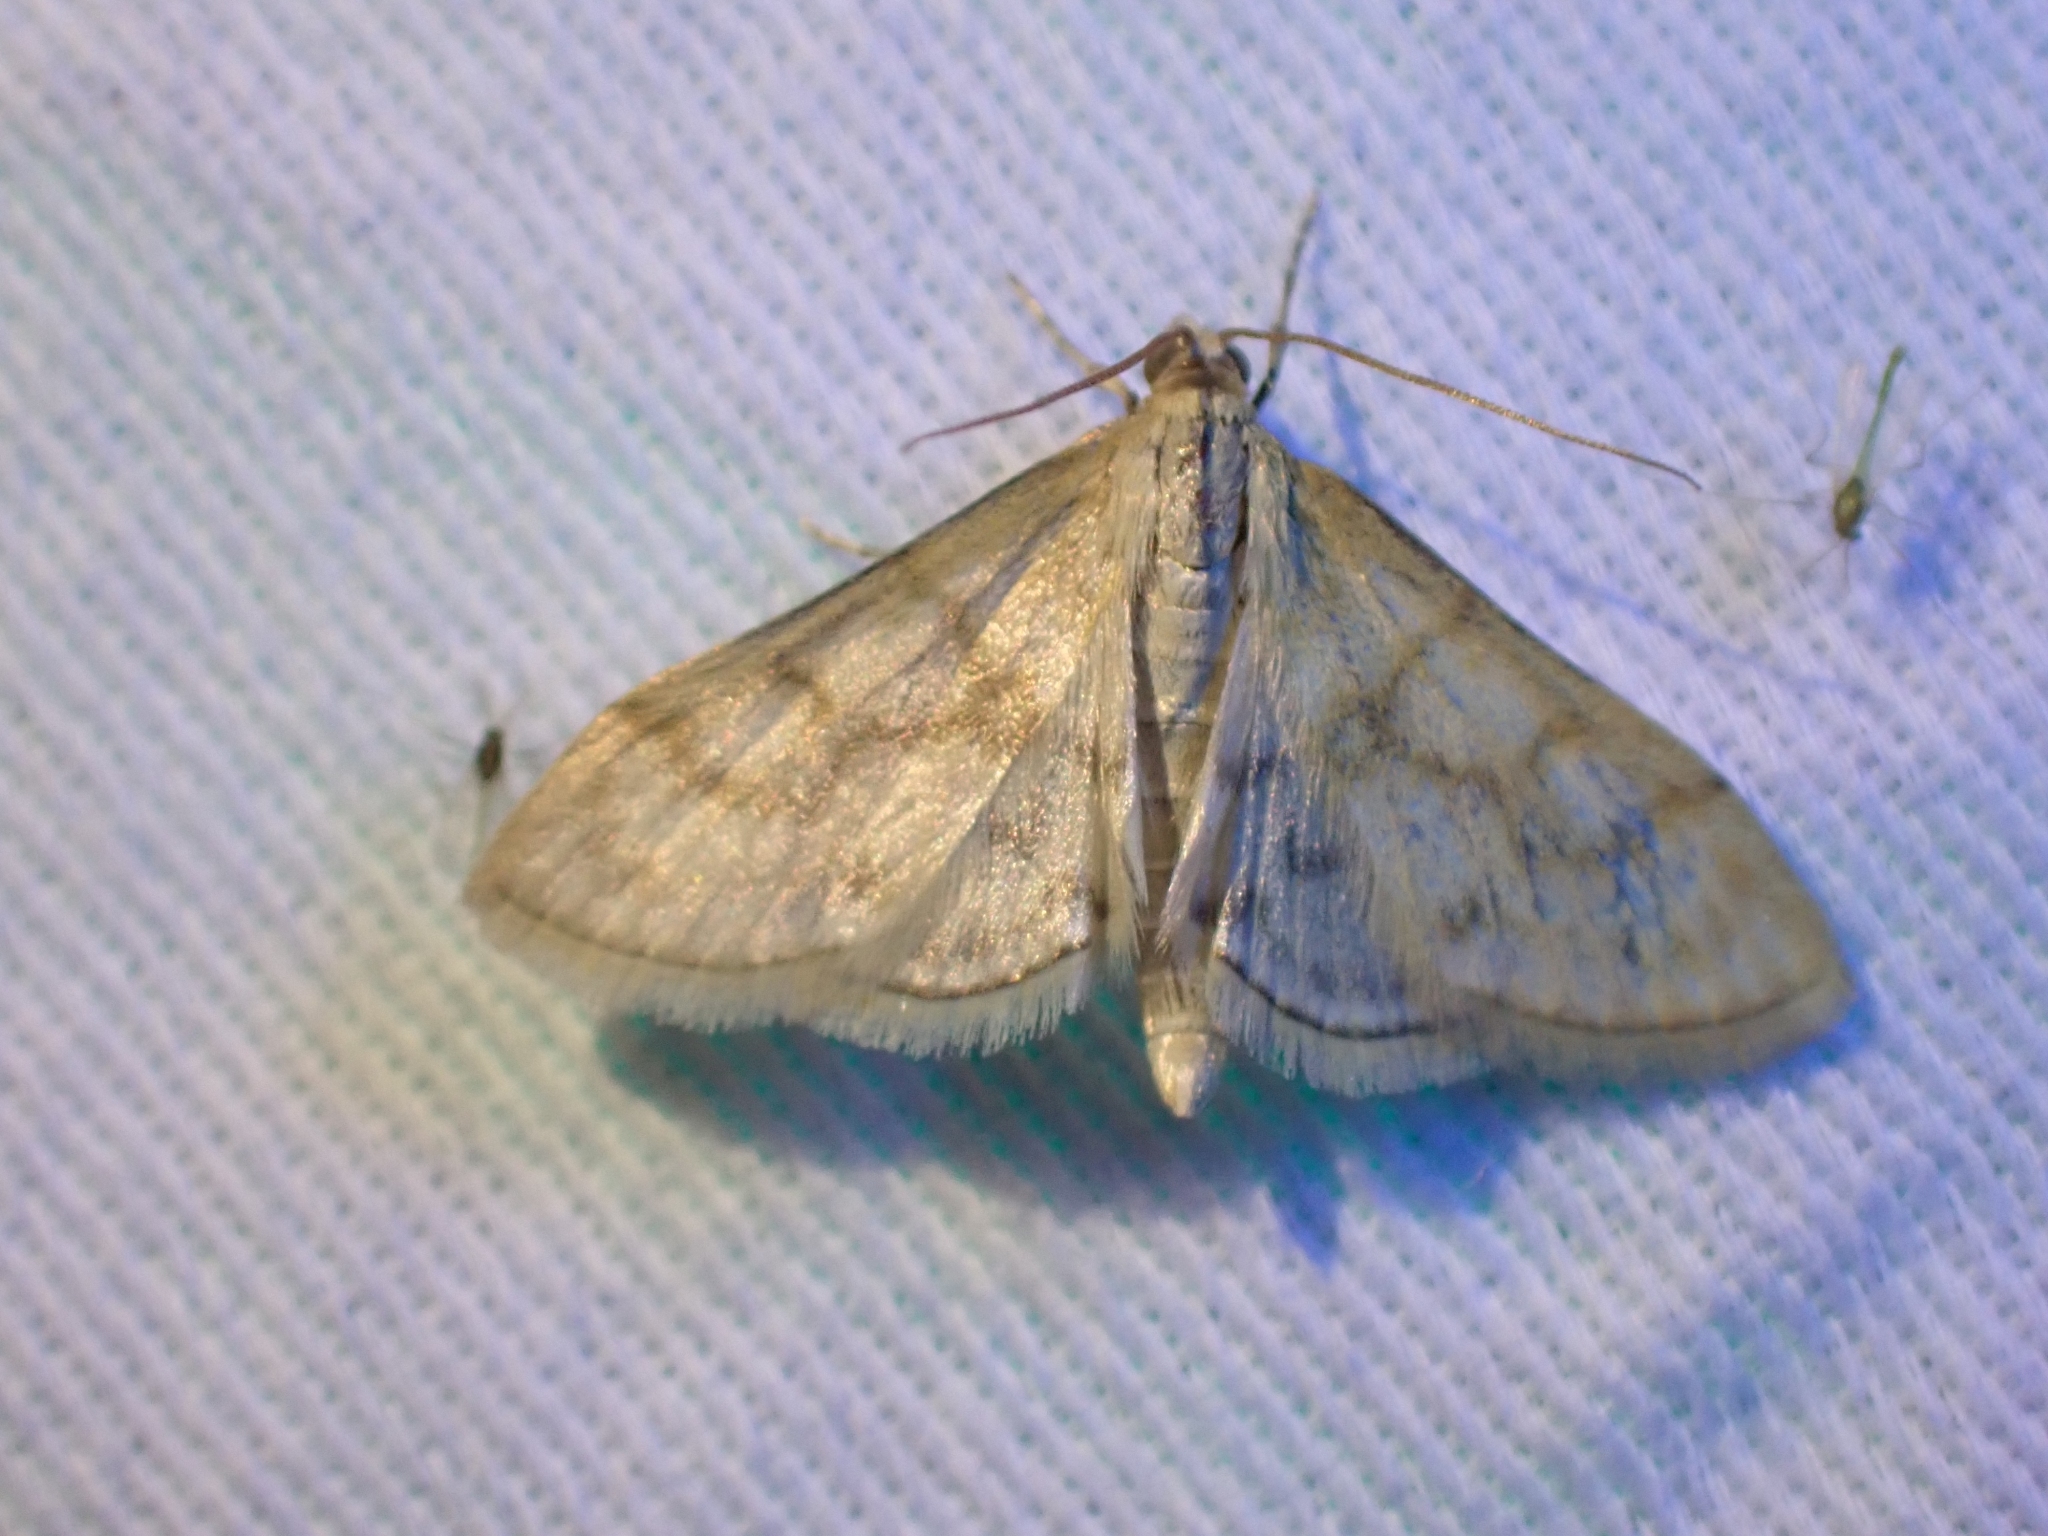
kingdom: Animalia
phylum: Arthropoda
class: Insecta
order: Lepidoptera
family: Crambidae
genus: Paracorsia
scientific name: Paracorsia repandalis
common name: Mullein moth
